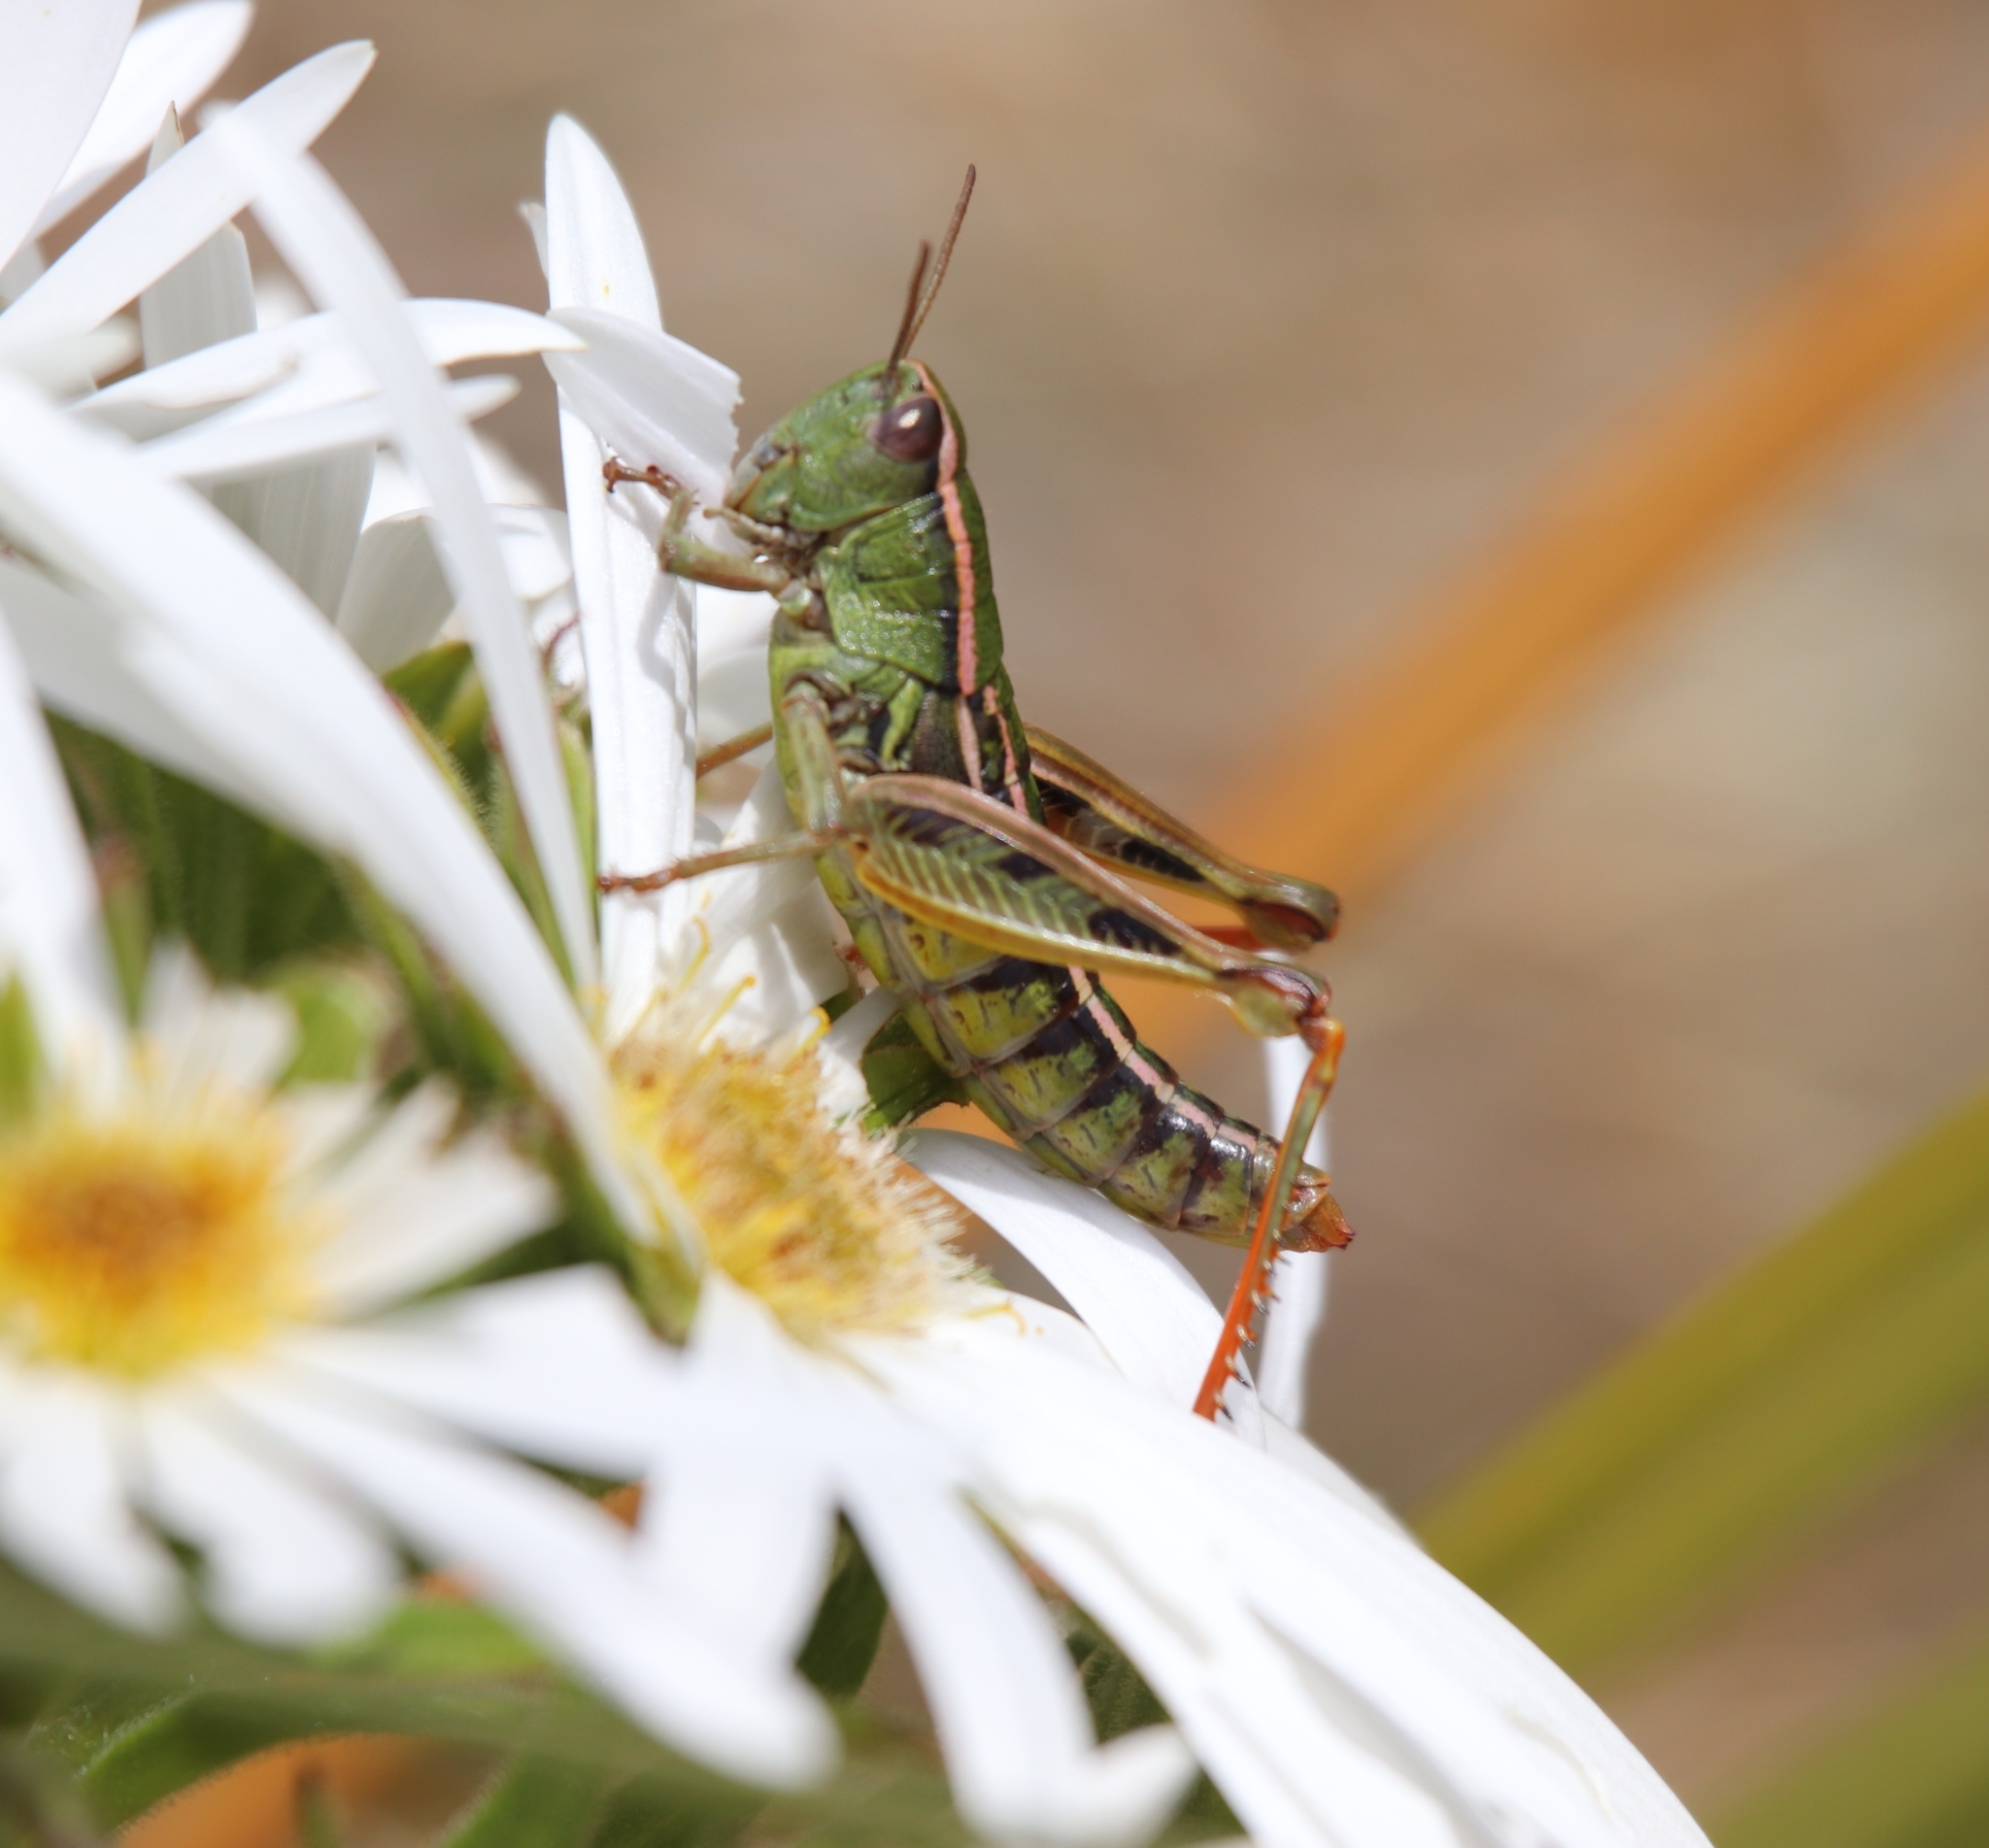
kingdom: Animalia
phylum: Arthropoda
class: Insecta
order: Orthoptera
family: Acrididae
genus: Sigaus
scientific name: Sigaus
